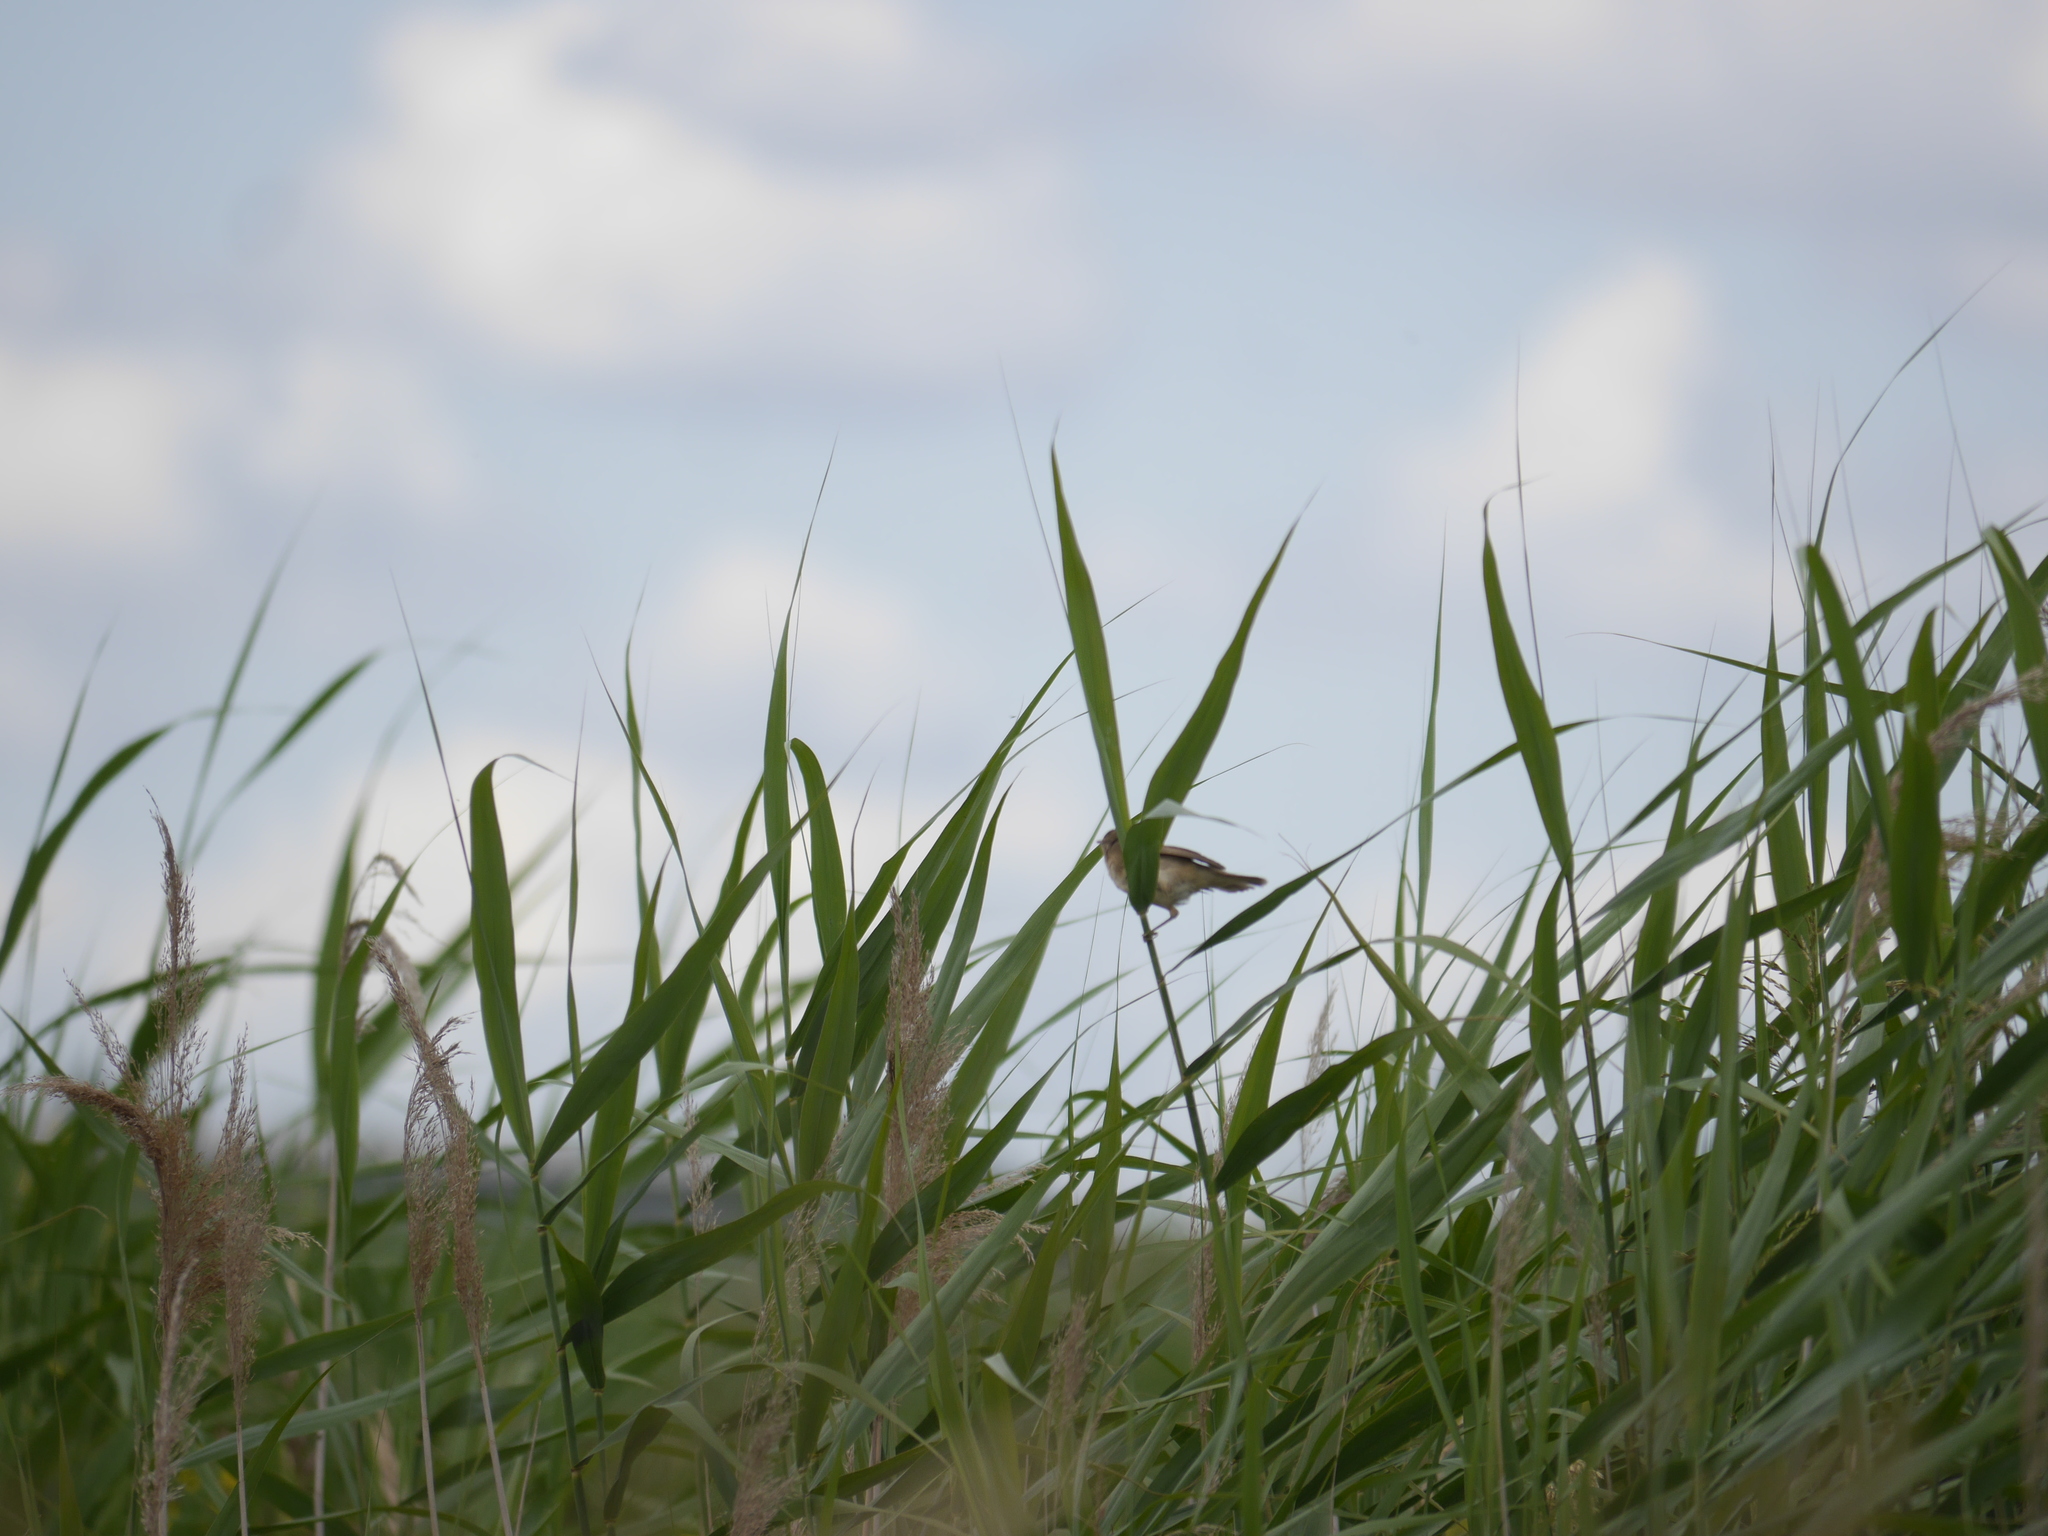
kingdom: Animalia
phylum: Chordata
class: Aves
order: Passeriformes
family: Acrocephalidae
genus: Acrocephalus
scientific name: Acrocephalus scirpaceus
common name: Eurasian reed warbler
